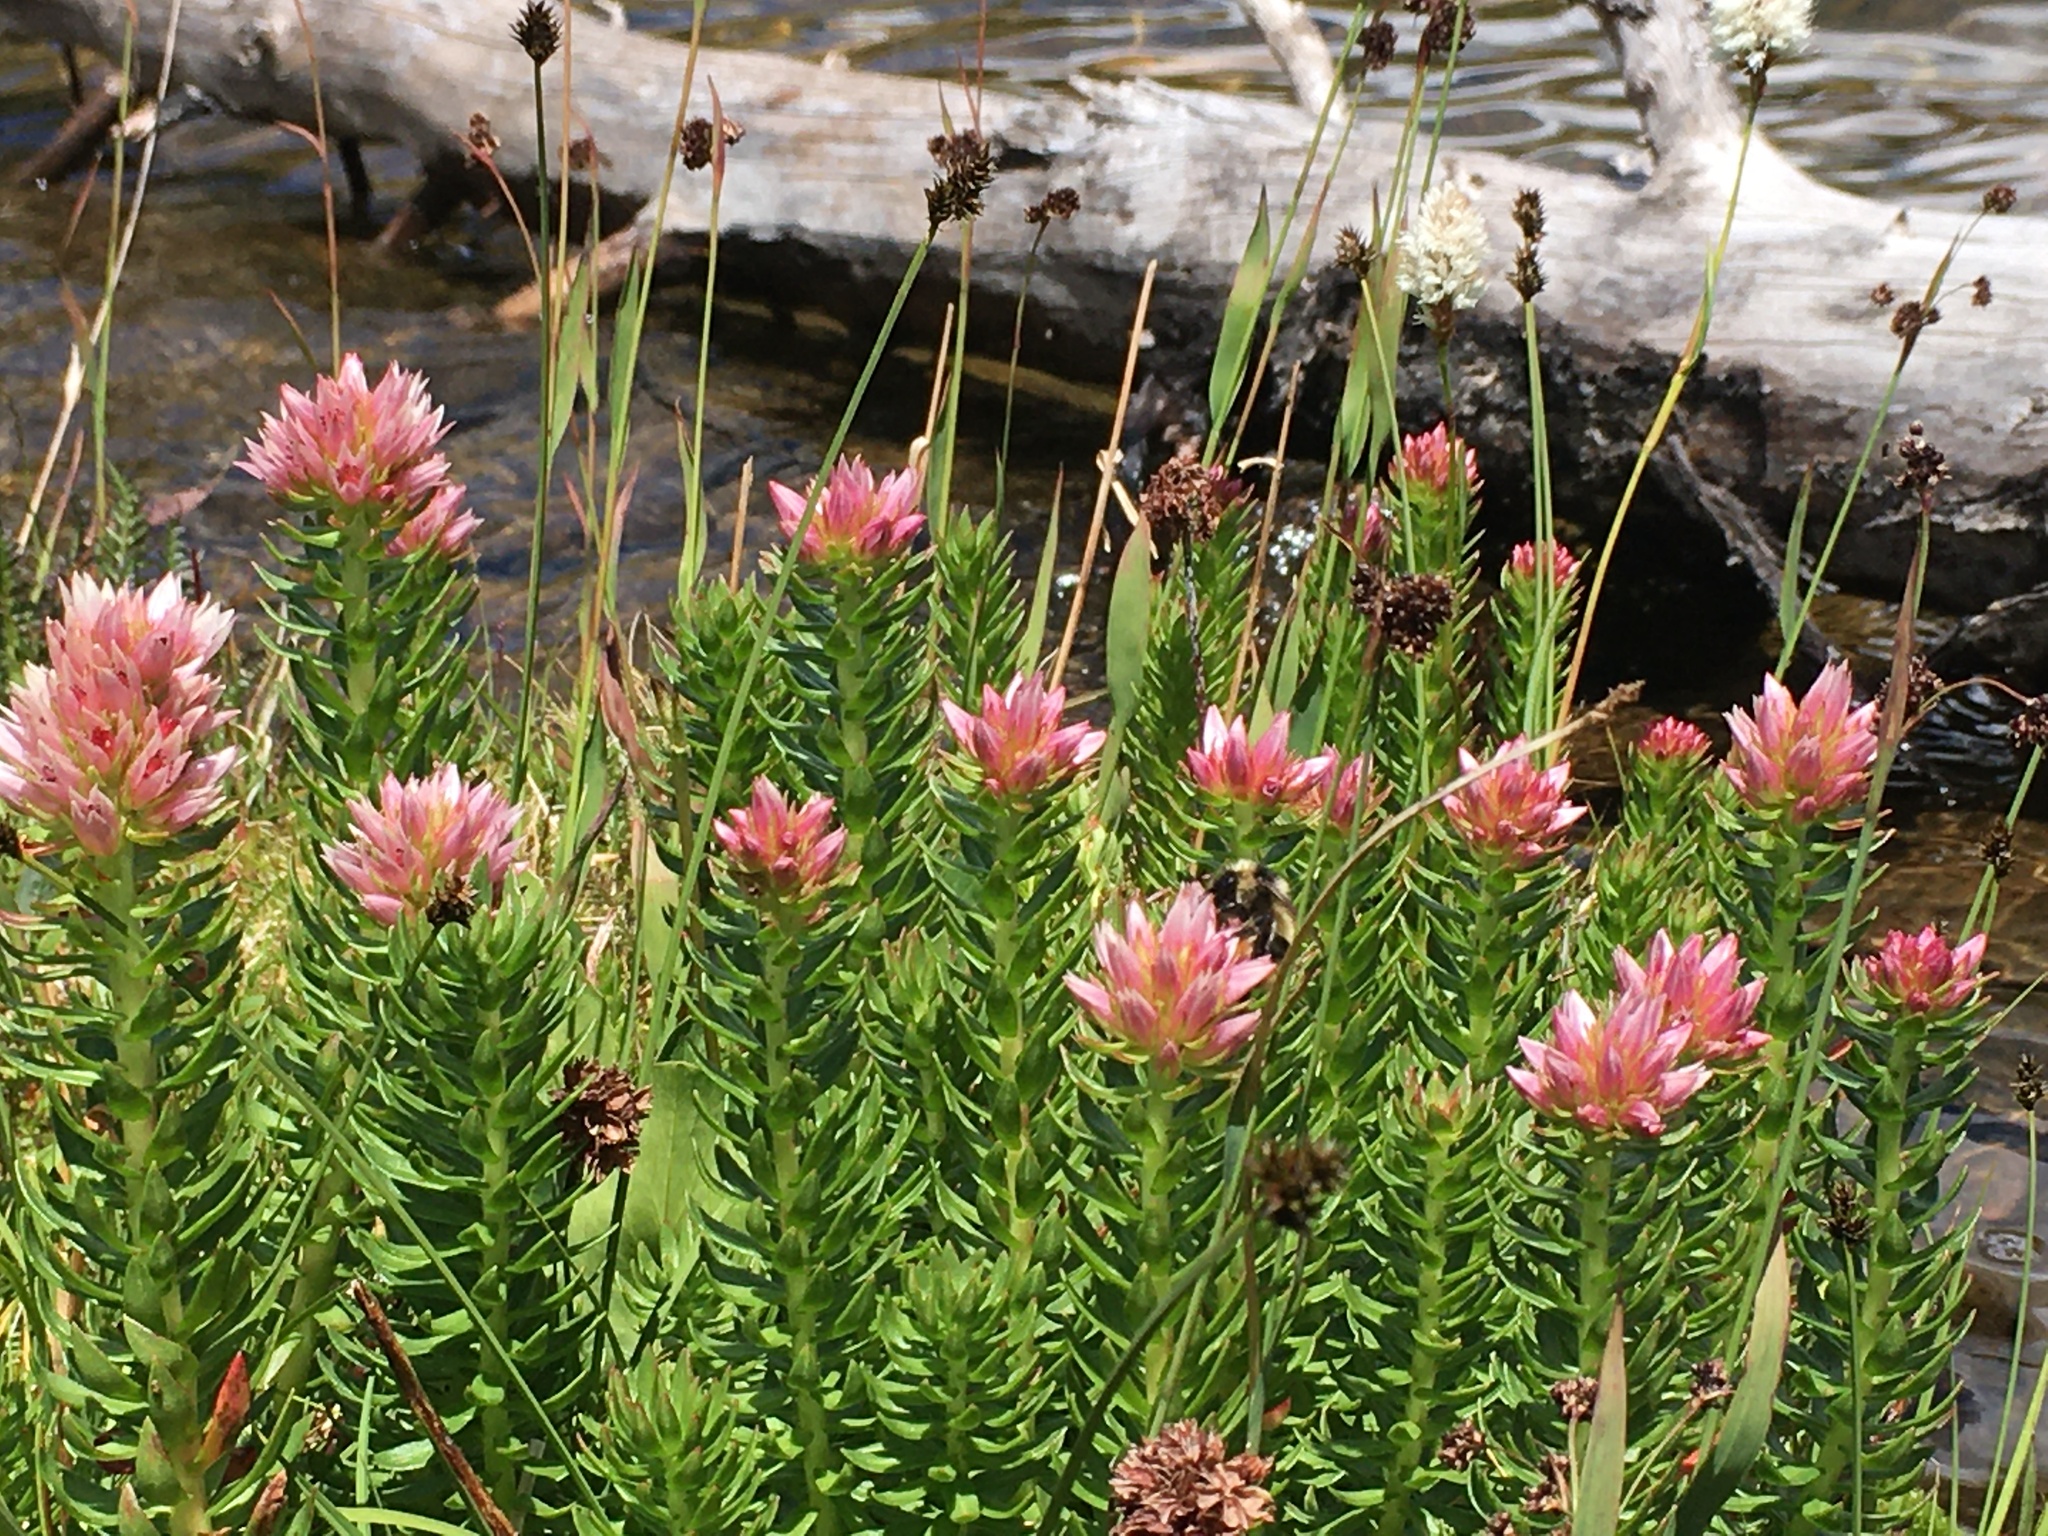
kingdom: Plantae
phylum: Tracheophyta
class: Magnoliopsida
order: Saxifragales
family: Crassulaceae
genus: Rhodiola
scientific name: Rhodiola rhodantha
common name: Red orpine
